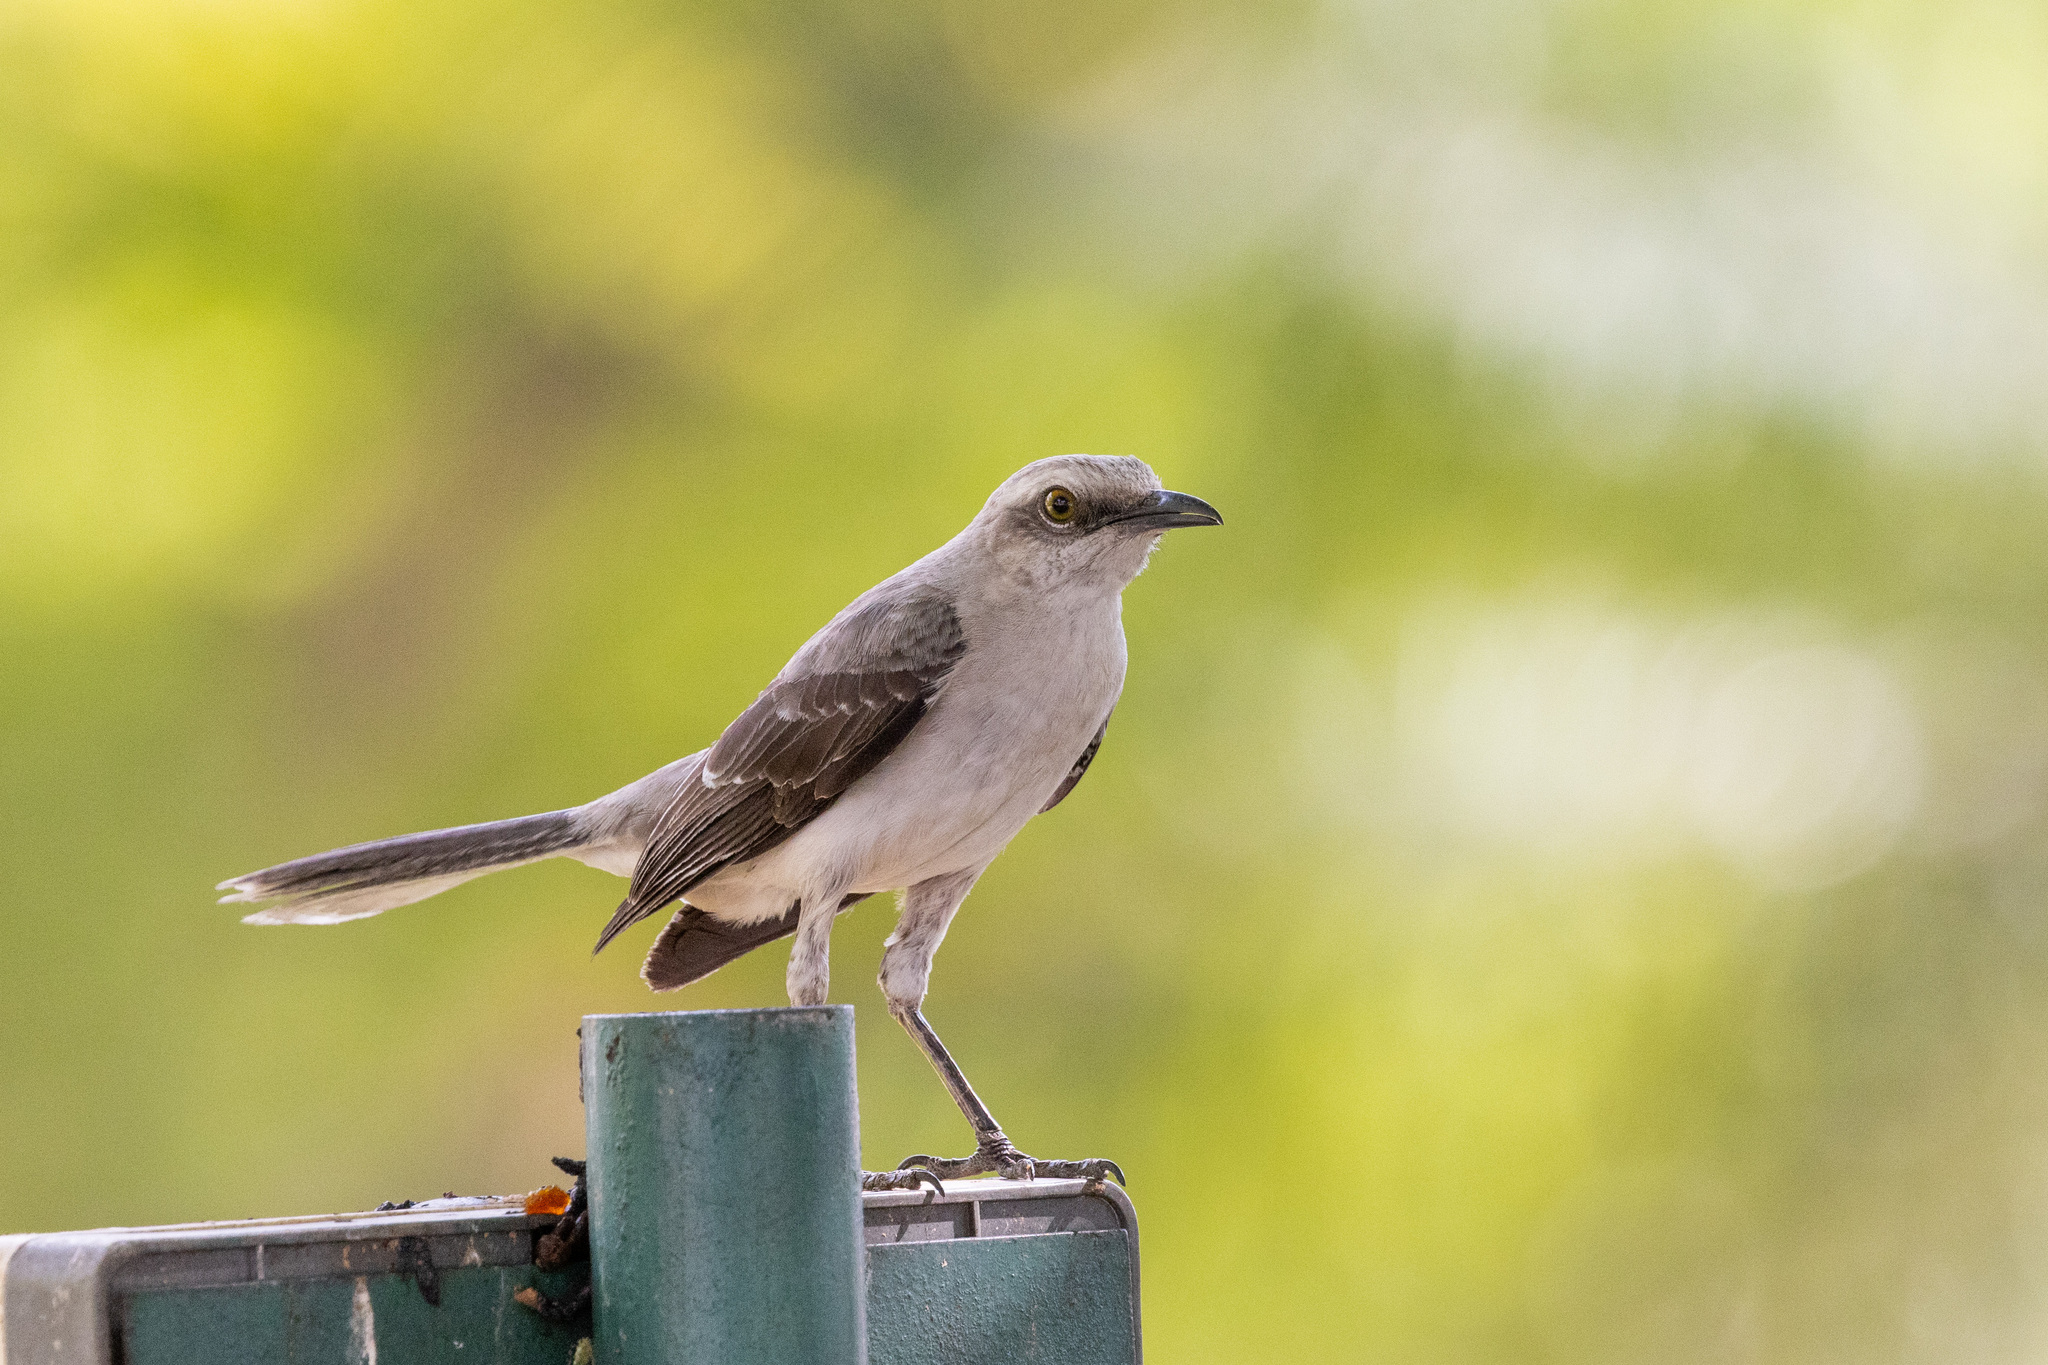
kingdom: Animalia
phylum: Chordata
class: Aves
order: Passeriformes
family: Mimidae
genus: Mimus
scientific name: Mimus gilvus
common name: Tropical mockingbird
